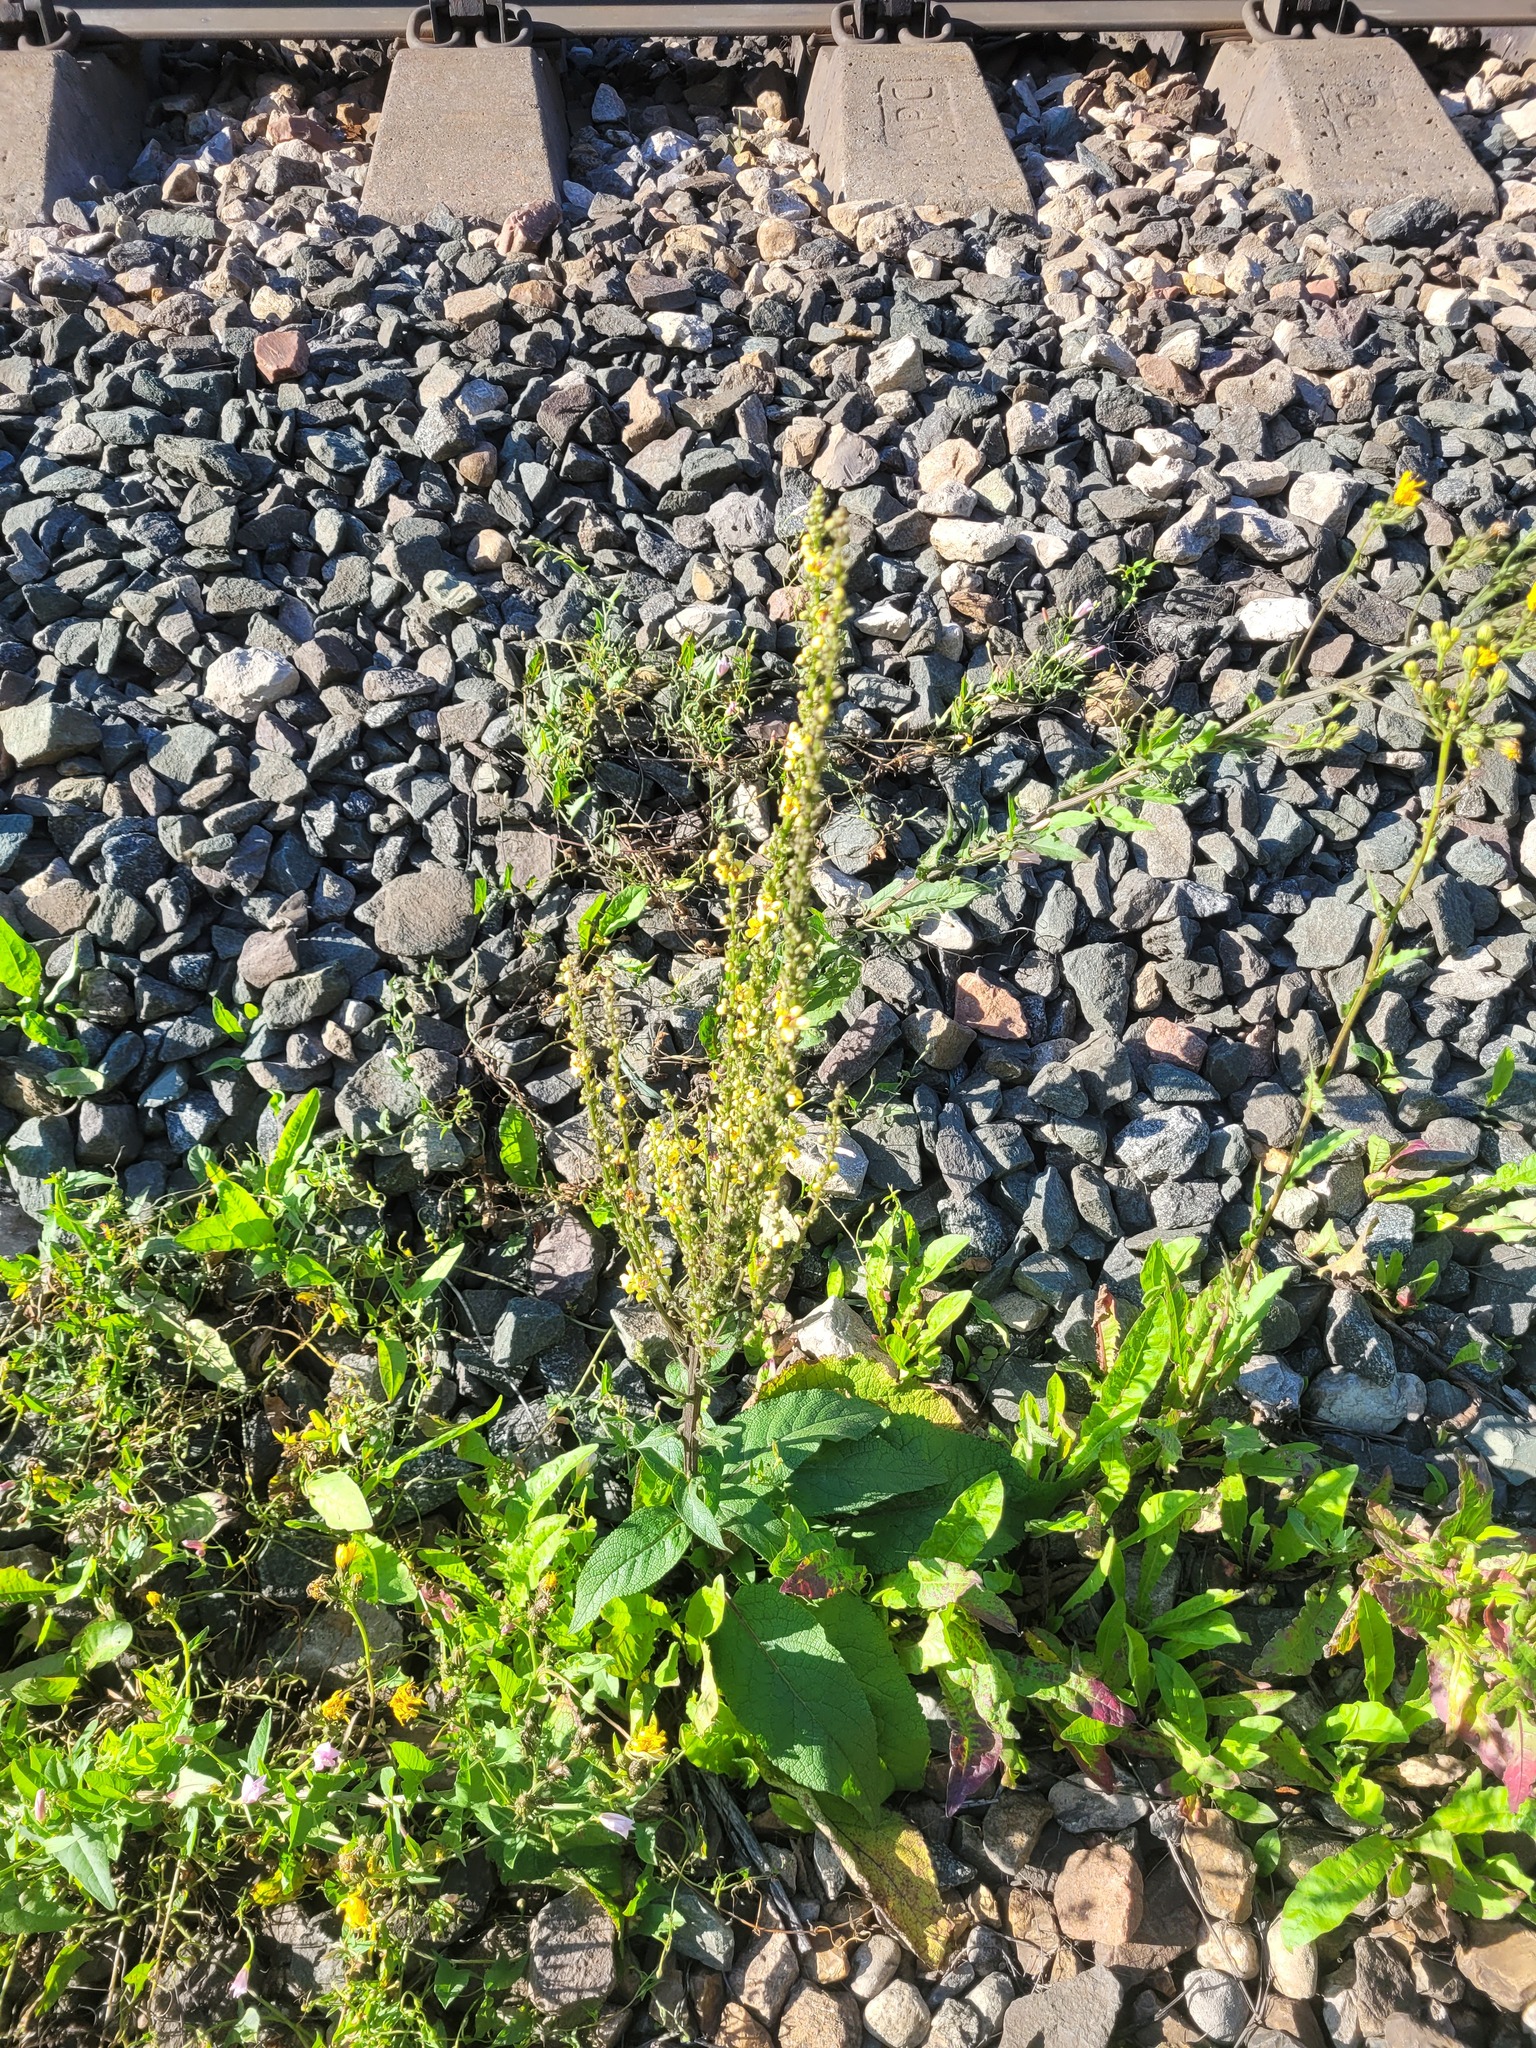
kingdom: Plantae
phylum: Tracheophyta
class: Magnoliopsida
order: Lamiales
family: Scrophulariaceae
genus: Verbascum
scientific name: Verbascum nigrum
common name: Dark mullein
